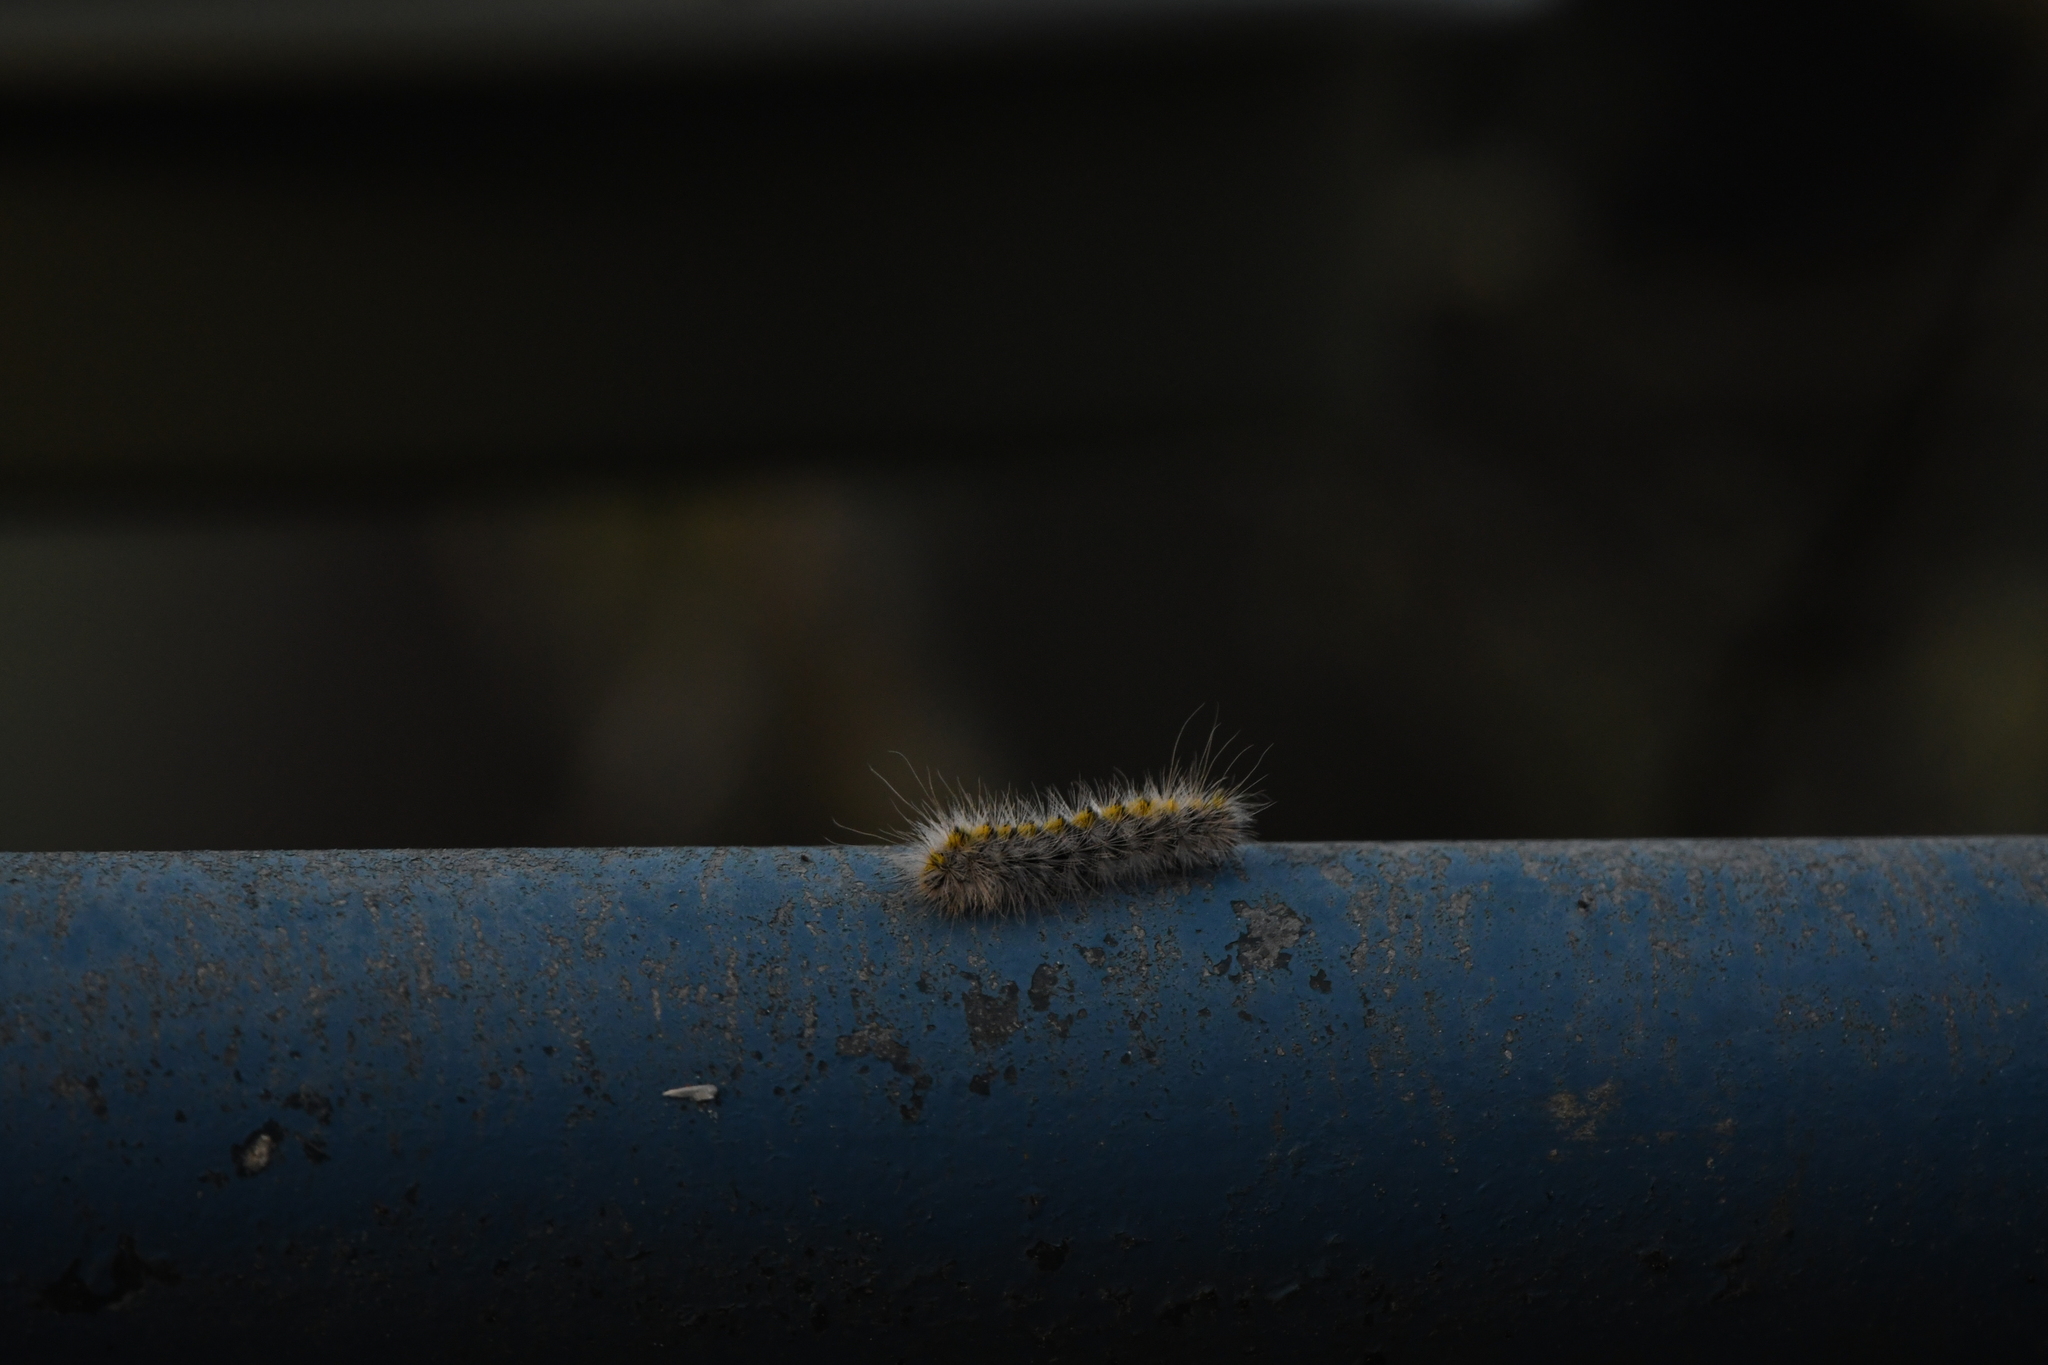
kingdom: Animalia
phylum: Arthropoda
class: Insecta
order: Lepidoptera
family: Erebidae
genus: Lophocampa
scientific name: Lophocampa sobrina
